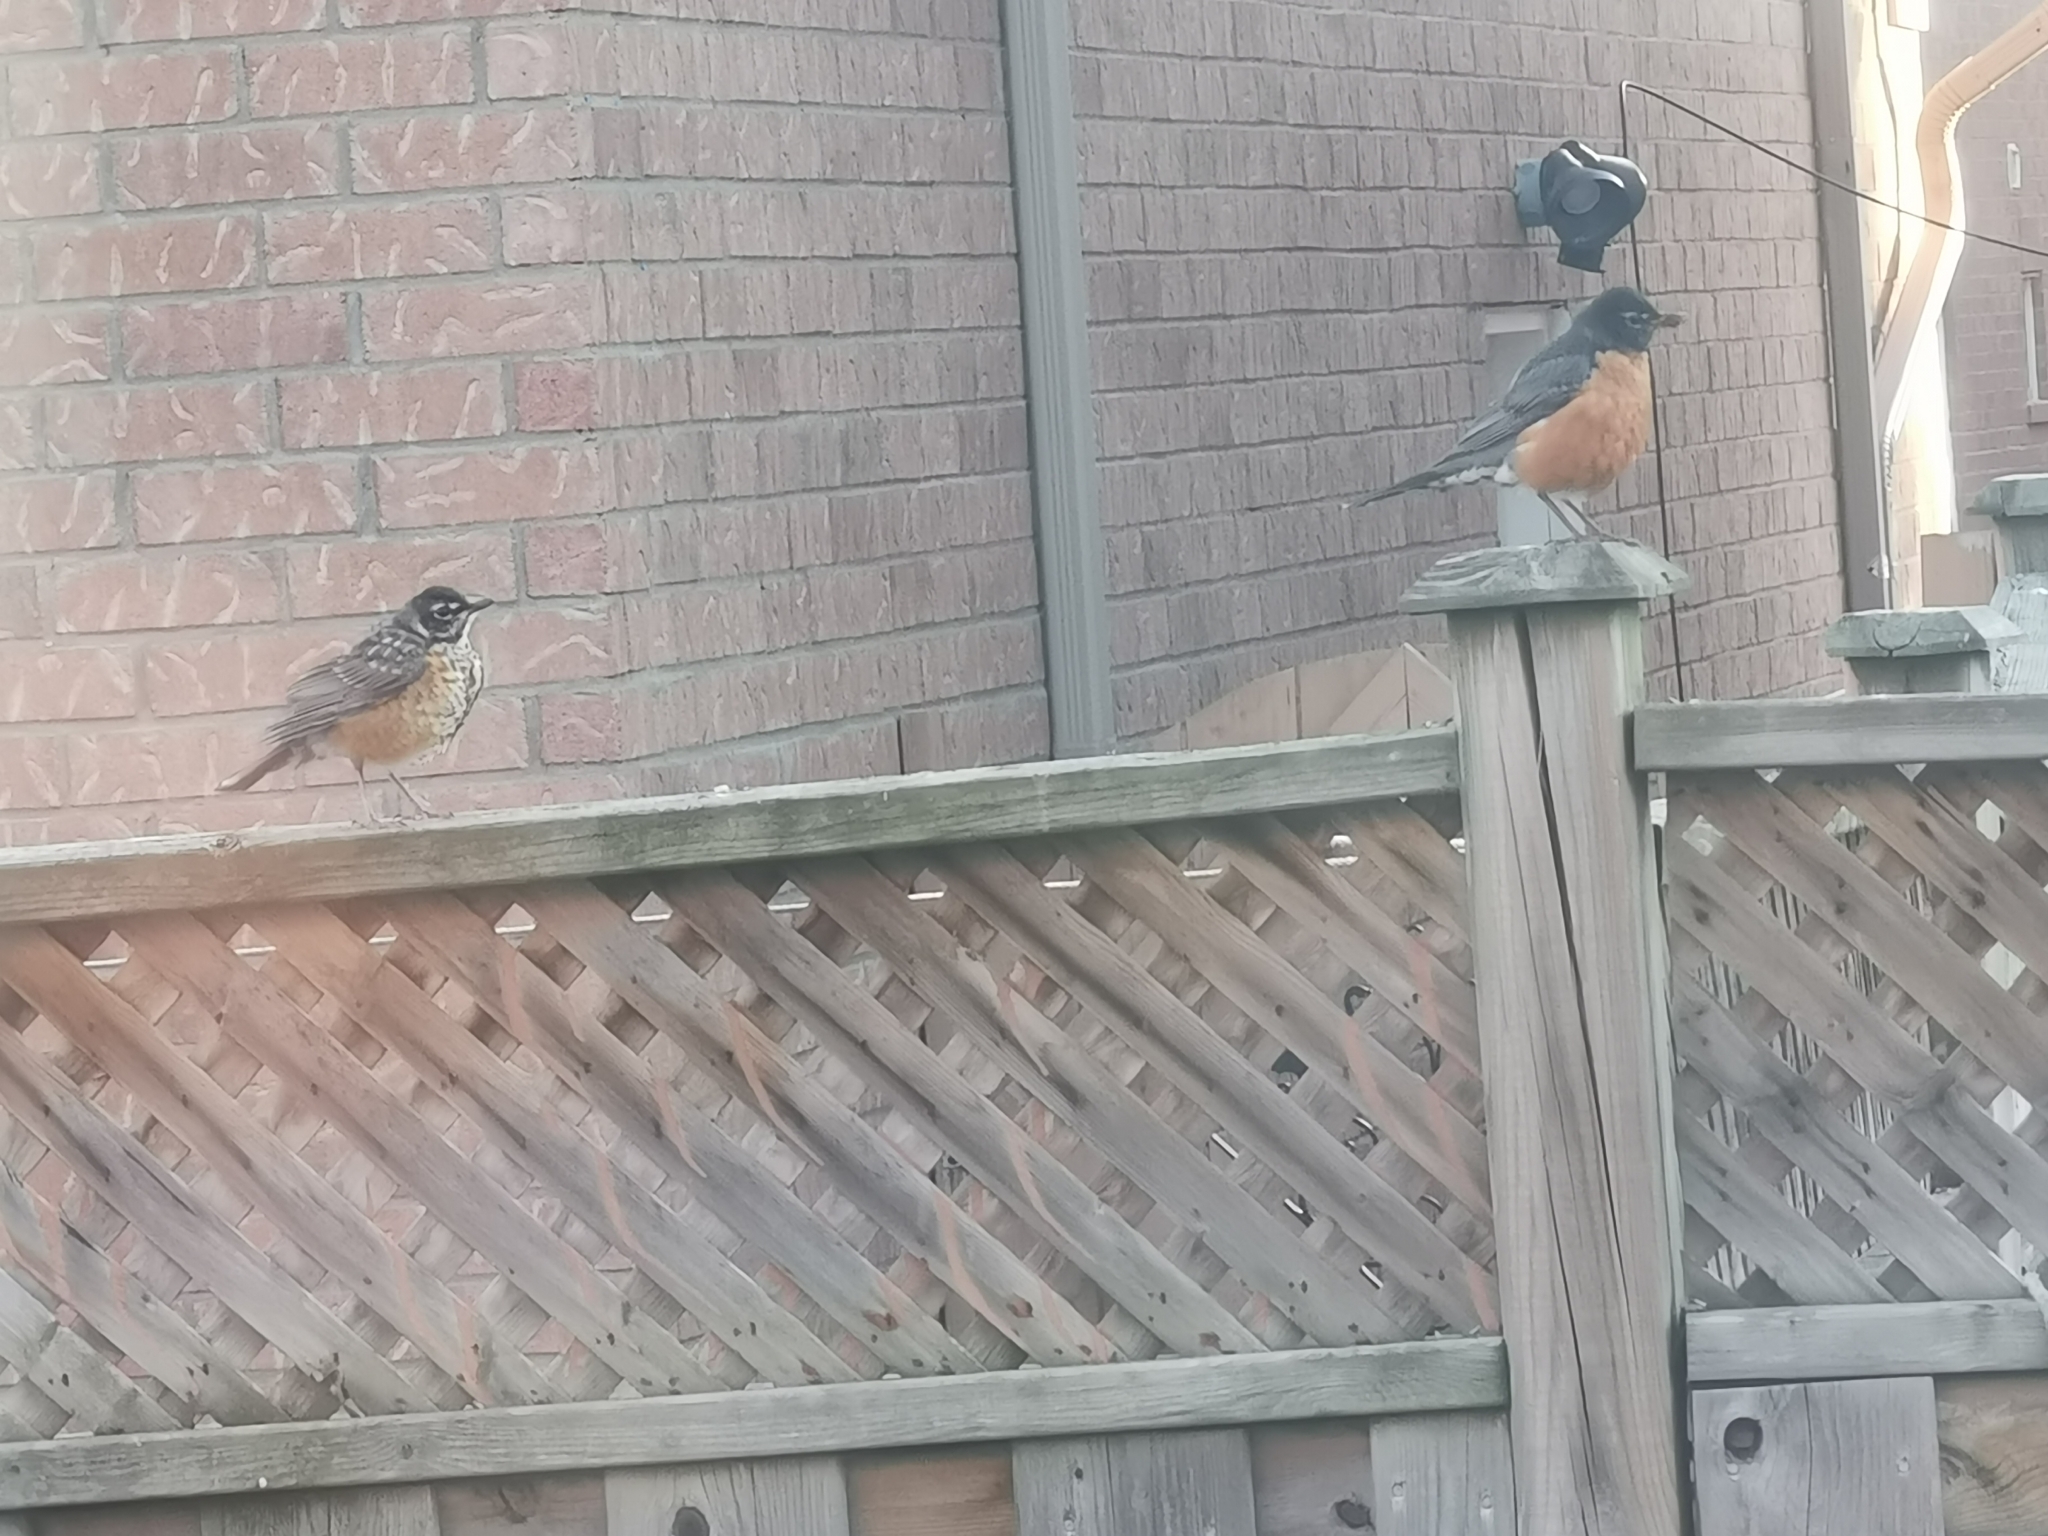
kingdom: Animalia
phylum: Chordata
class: Aves
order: Passeriformes
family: Turdidae
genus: Turdus
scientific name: Turdus migratorius
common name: American robin
